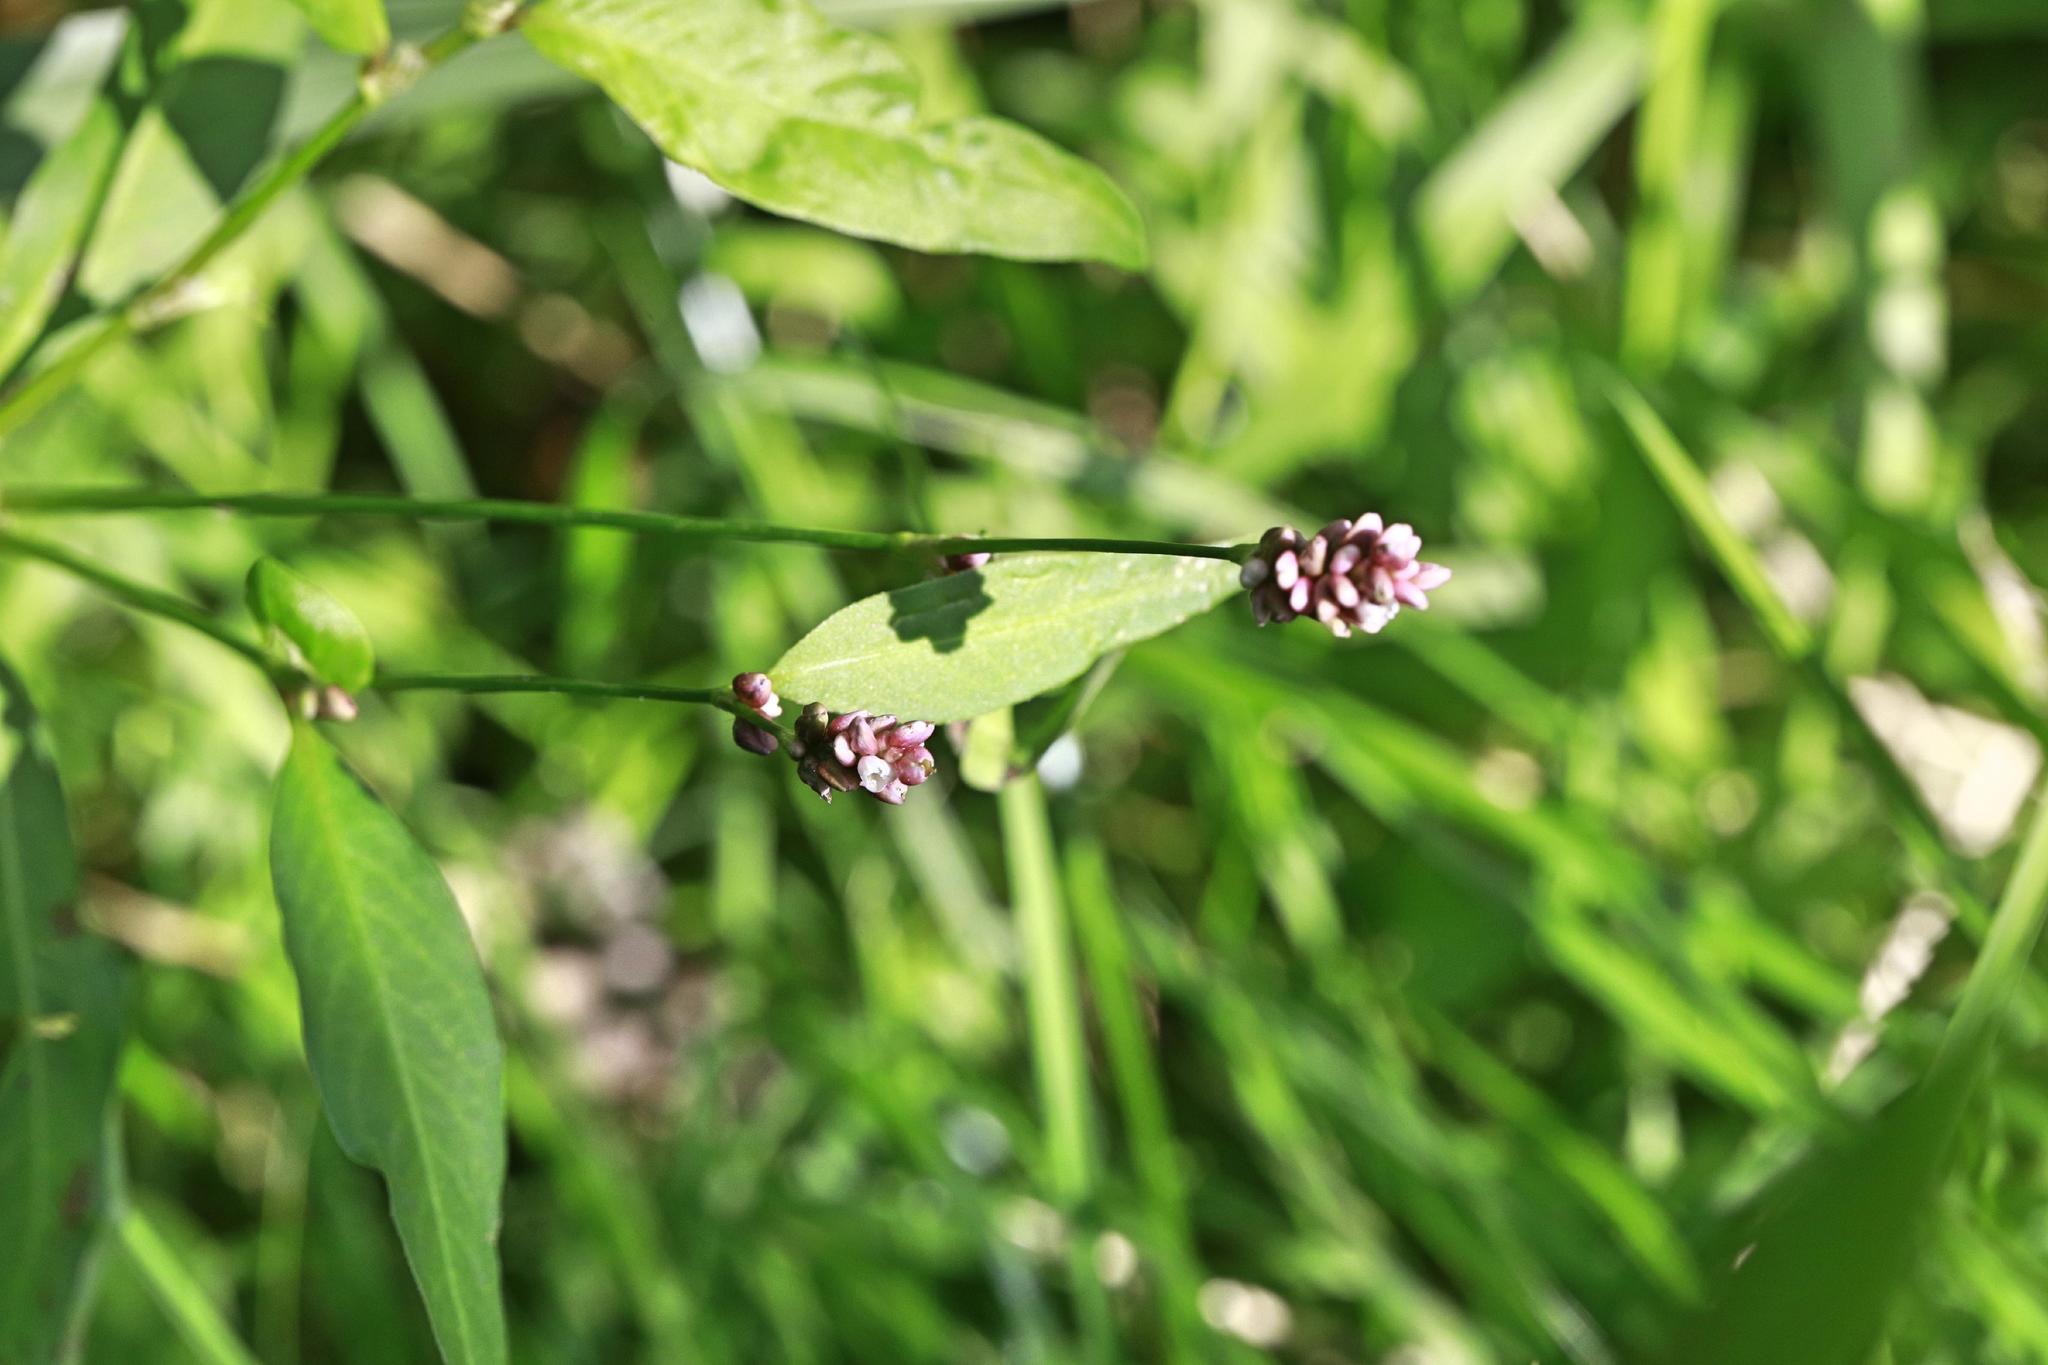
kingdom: Plantae
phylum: Tracheophyta
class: Magnoliopsida
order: Caryophyllales
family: Polygonaceae
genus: Persicaria
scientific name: Persicaria maculosa
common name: Redshank
